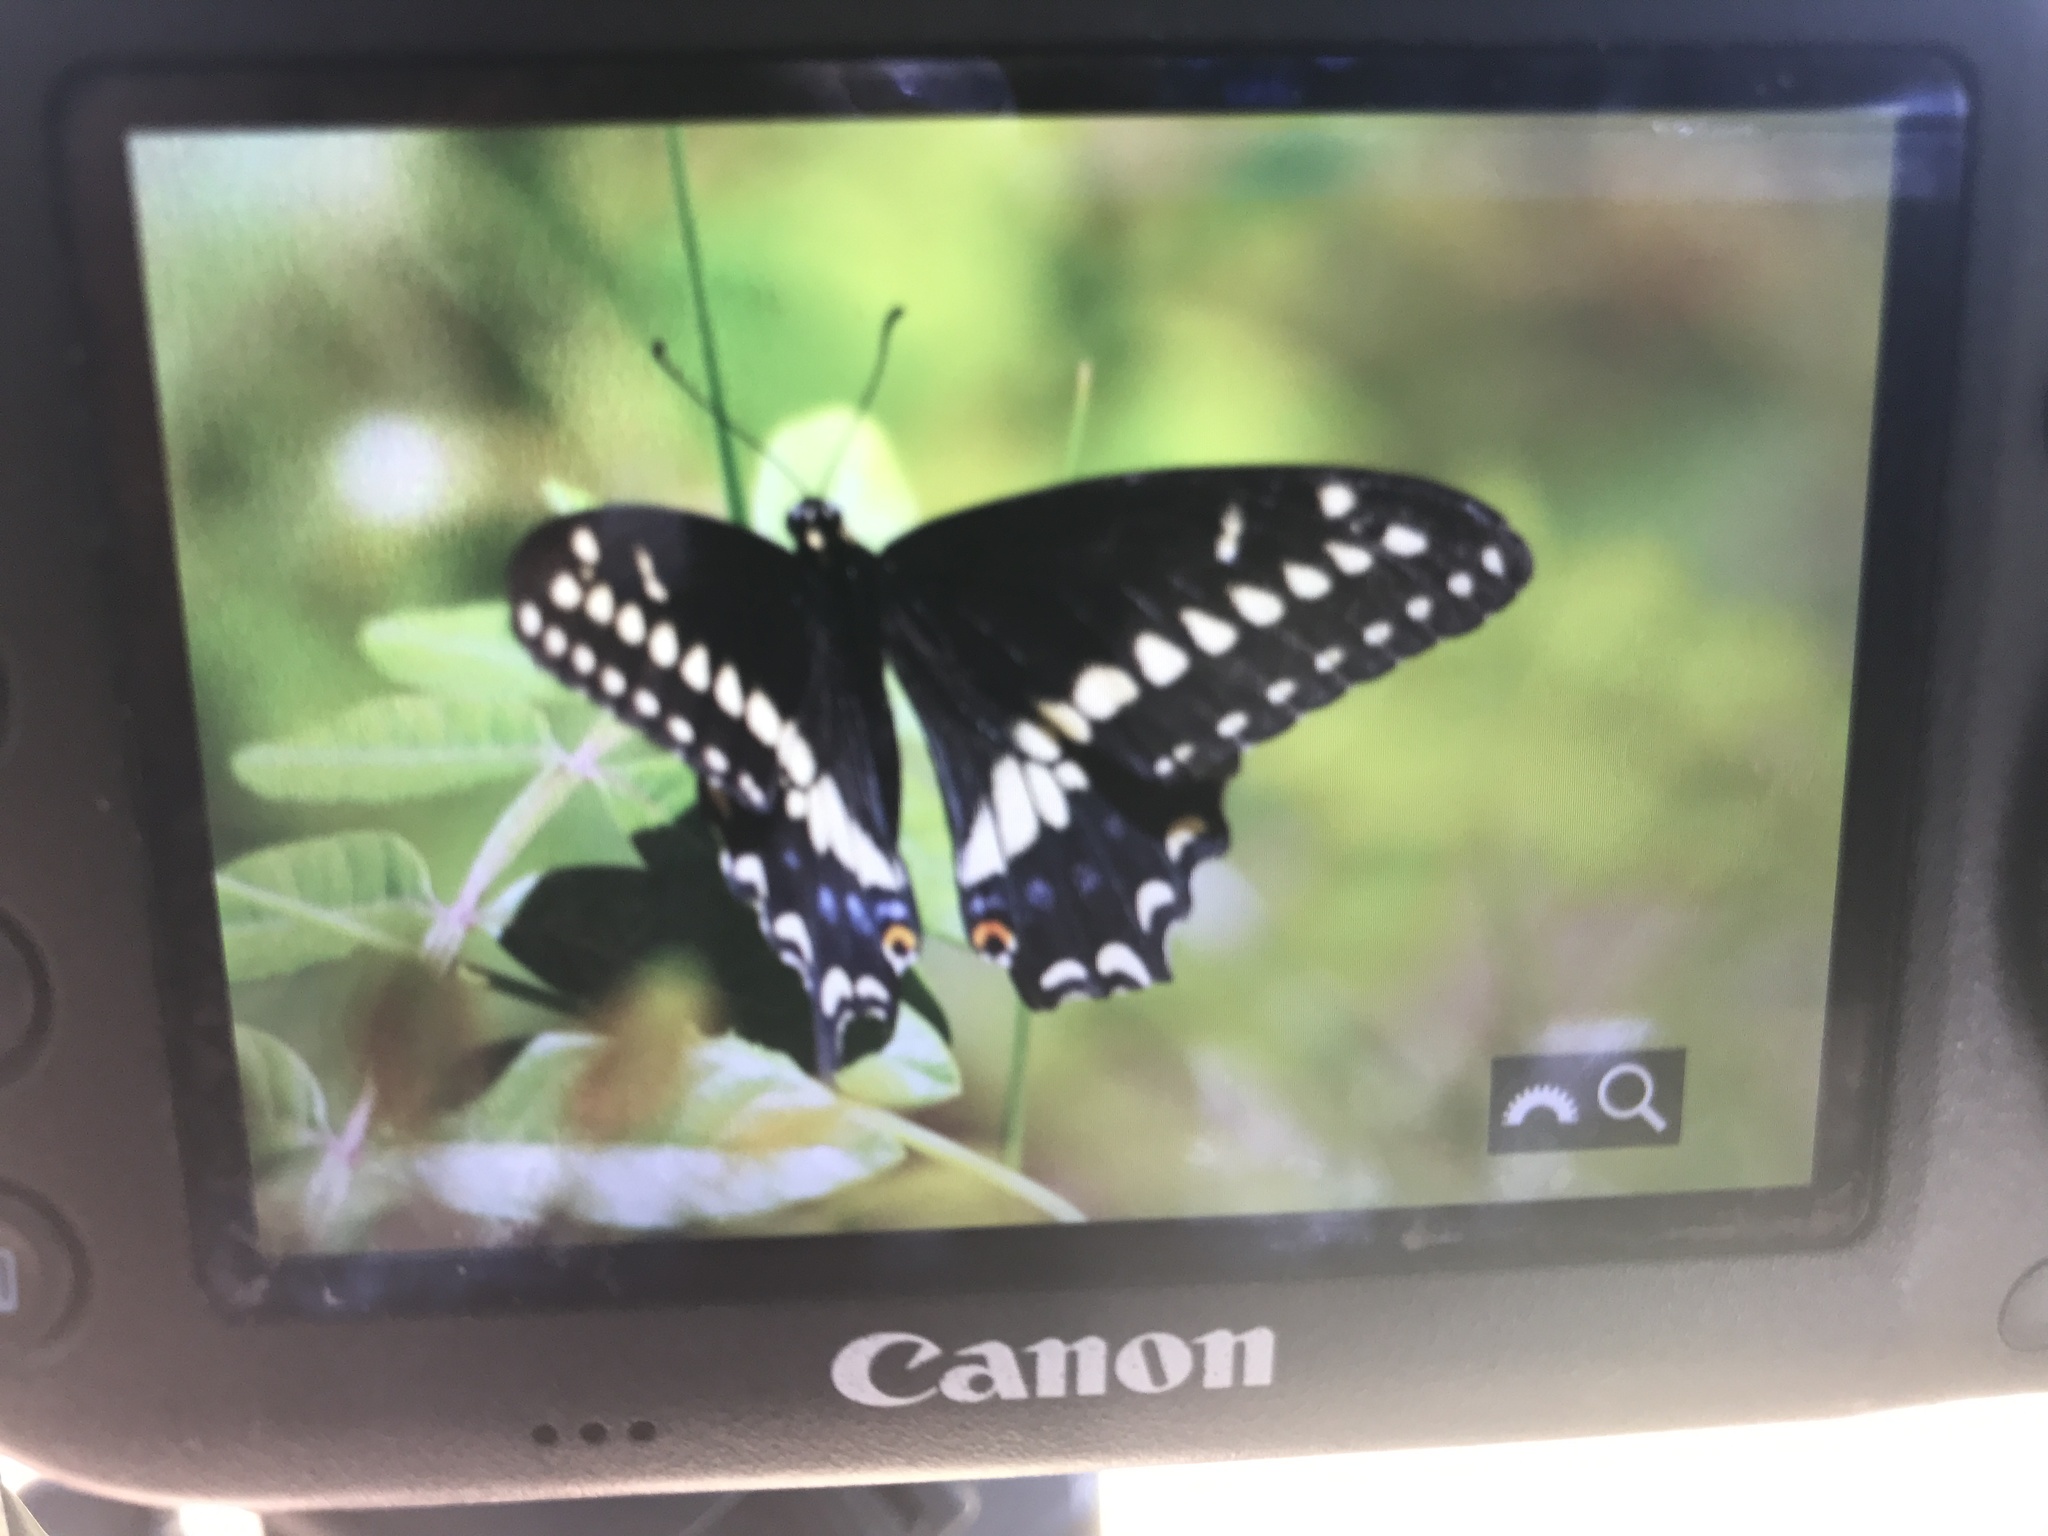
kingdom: Animalia
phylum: Arthropoda
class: Insecta
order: Lepidoptera
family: Papilionidae
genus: Papilio
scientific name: Papilio polyxenes
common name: Black swallowtail
